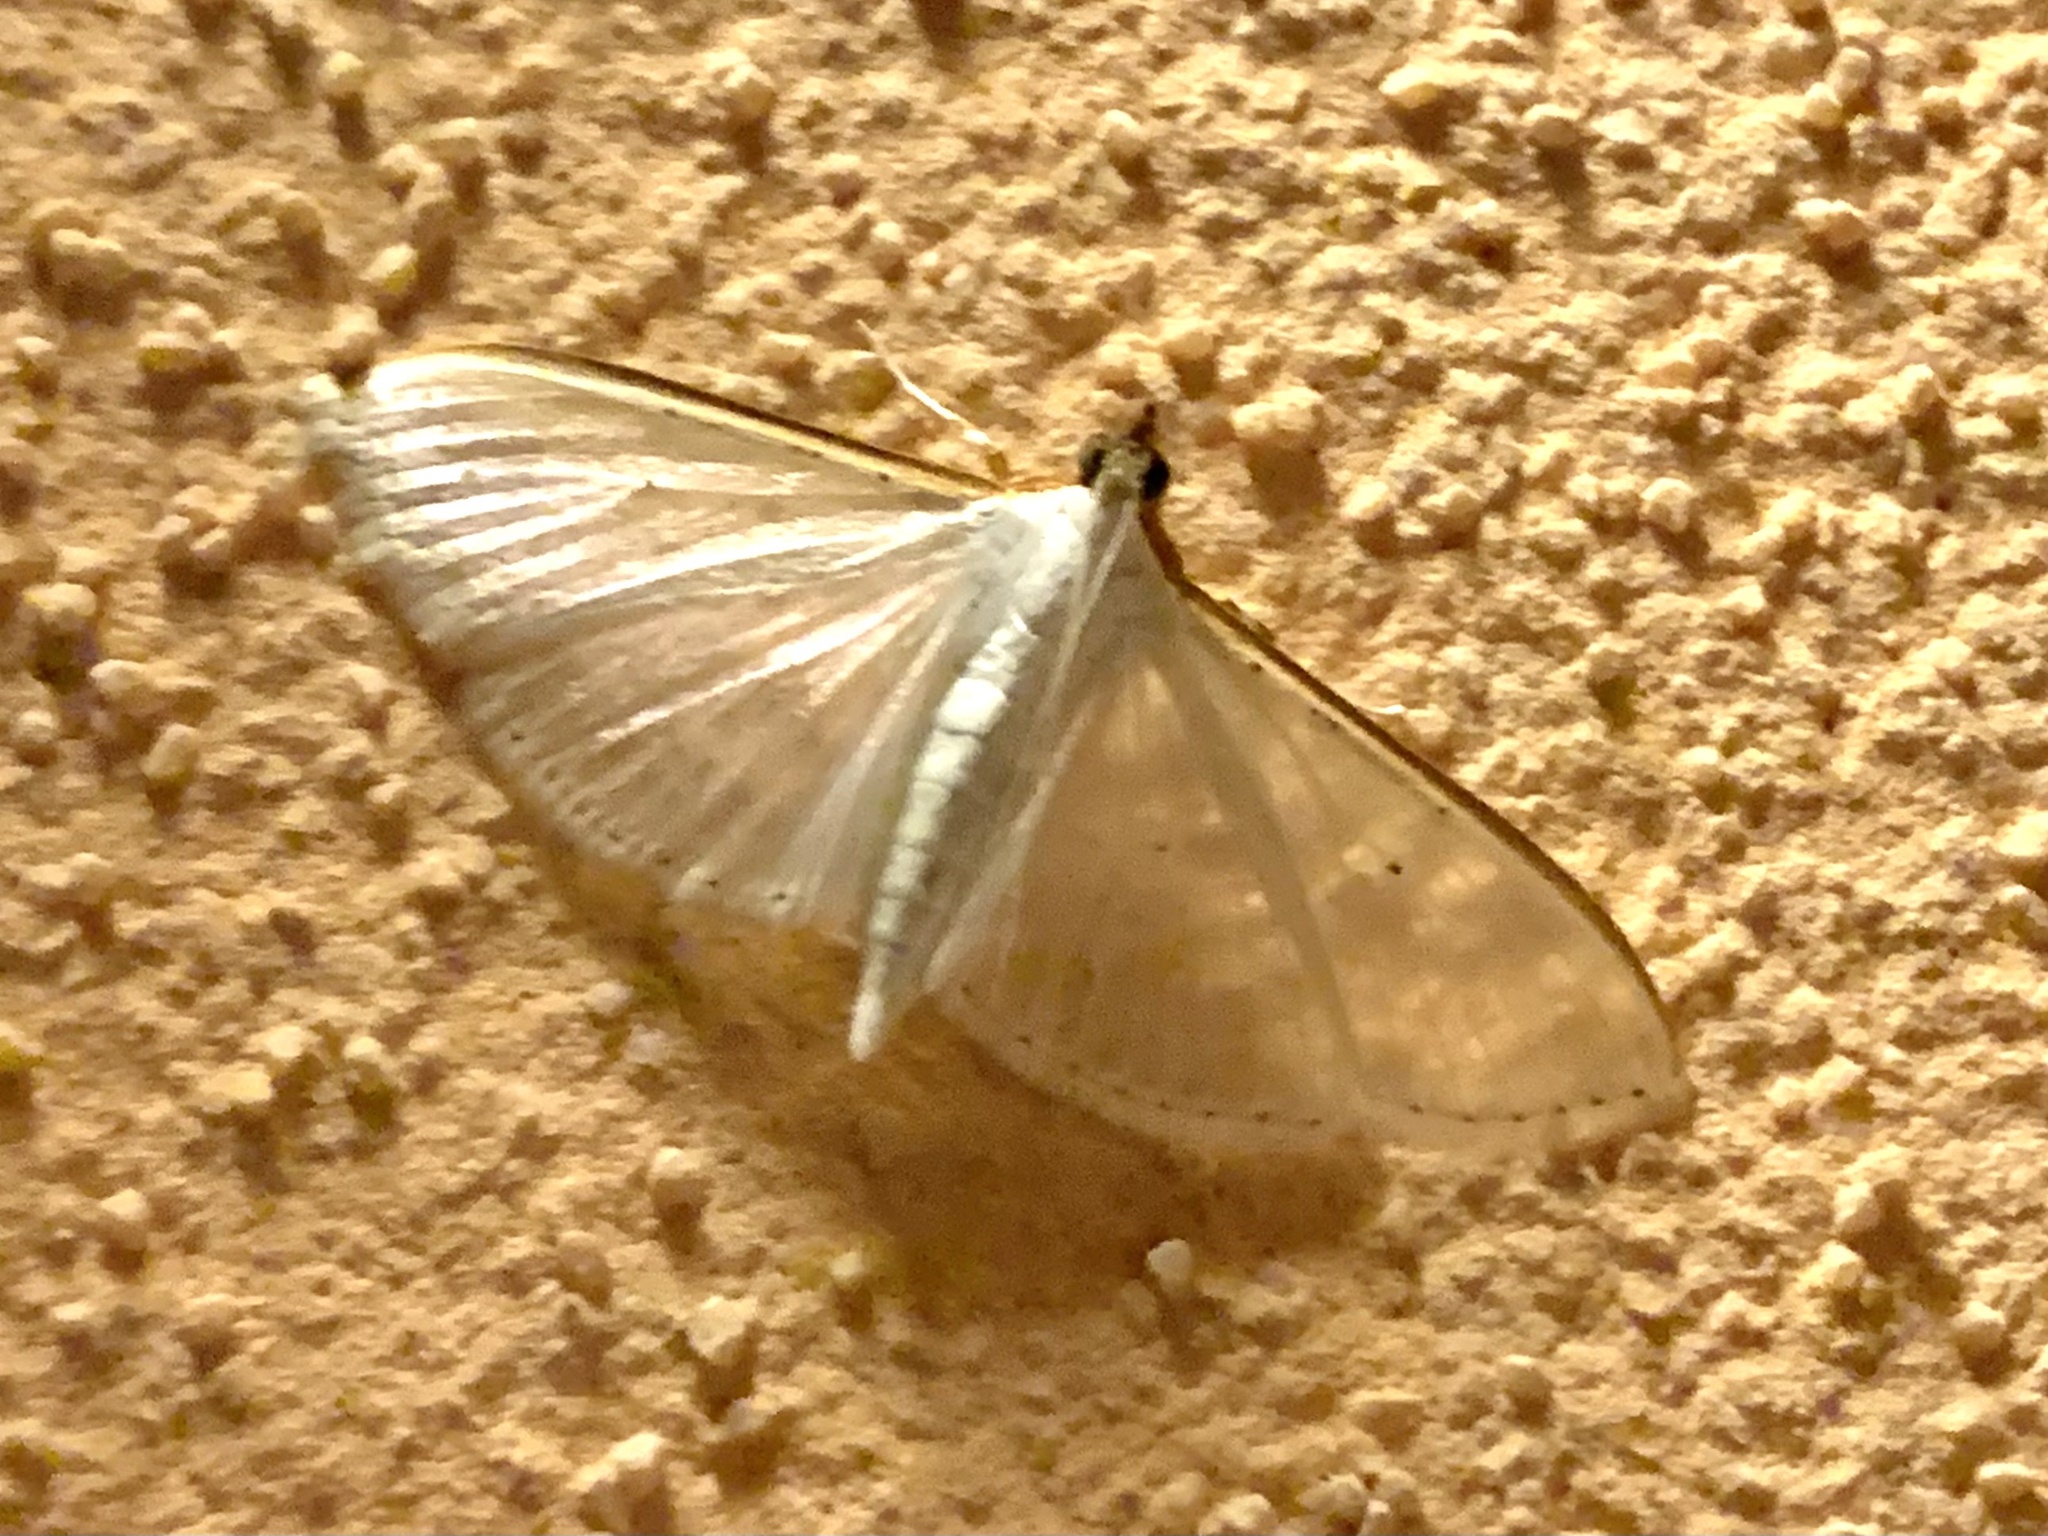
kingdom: Animalia
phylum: Arthropoda
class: Insecta
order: Lepidoptera
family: Crambidae
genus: Palpita
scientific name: Palpita vitrealis
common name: Olive-tree pearl
